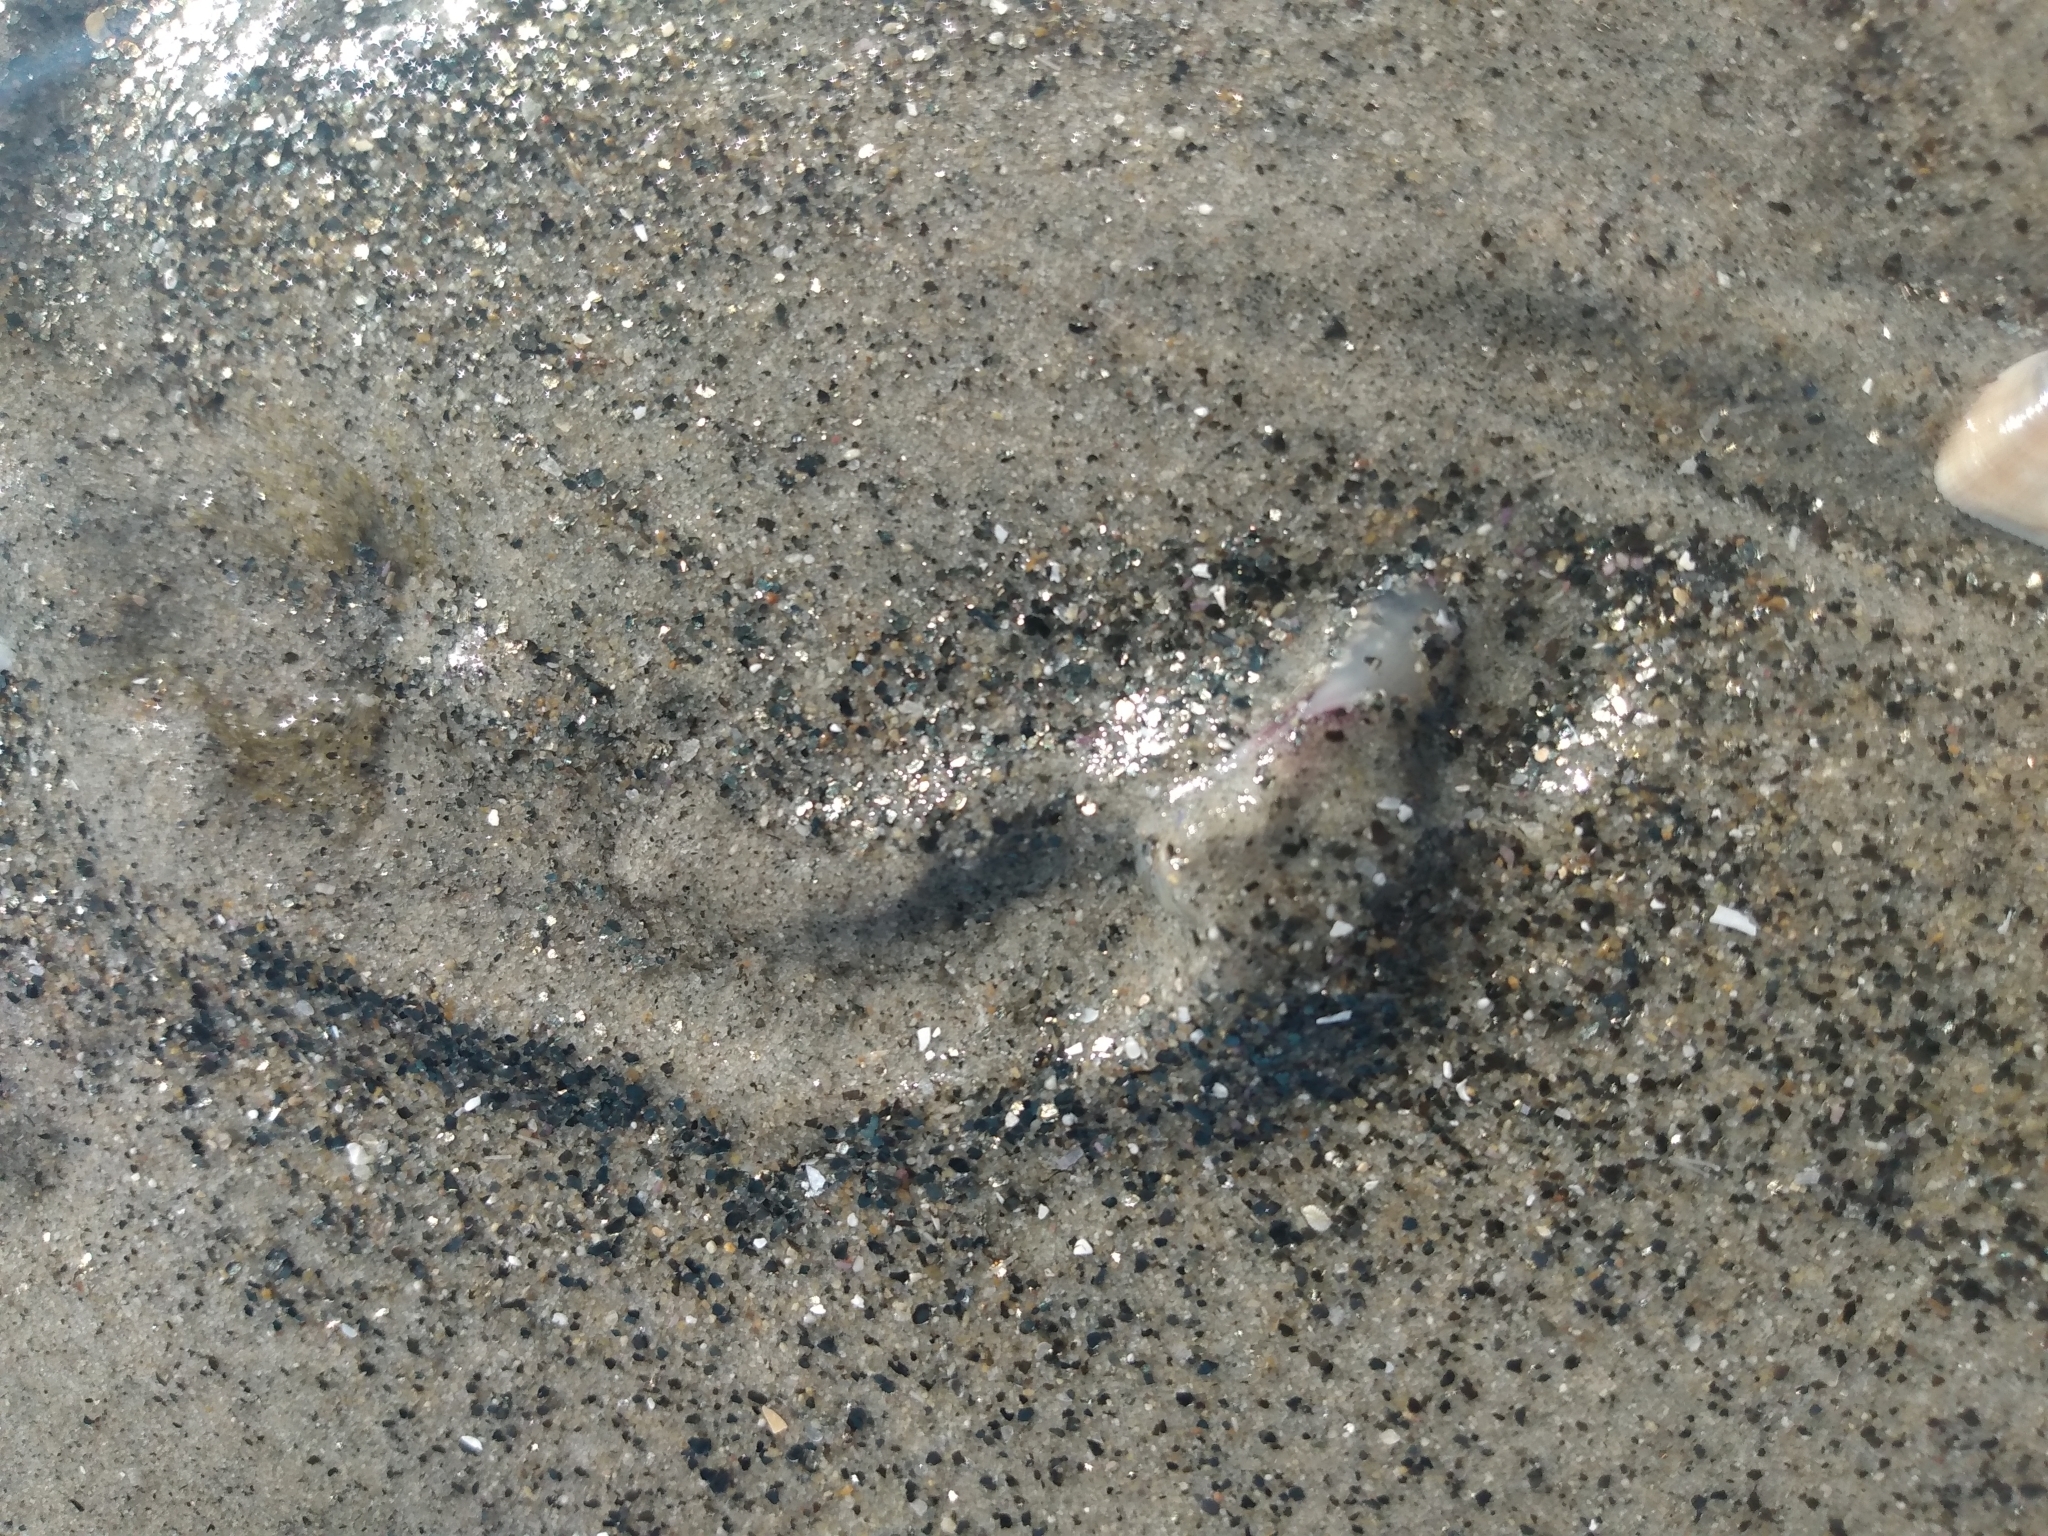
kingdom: Animalia
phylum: Mollusca
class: Bivalvia
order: Cardiida
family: Donacidae
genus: Donax
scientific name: Donax gouldii
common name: Gould beanclam
